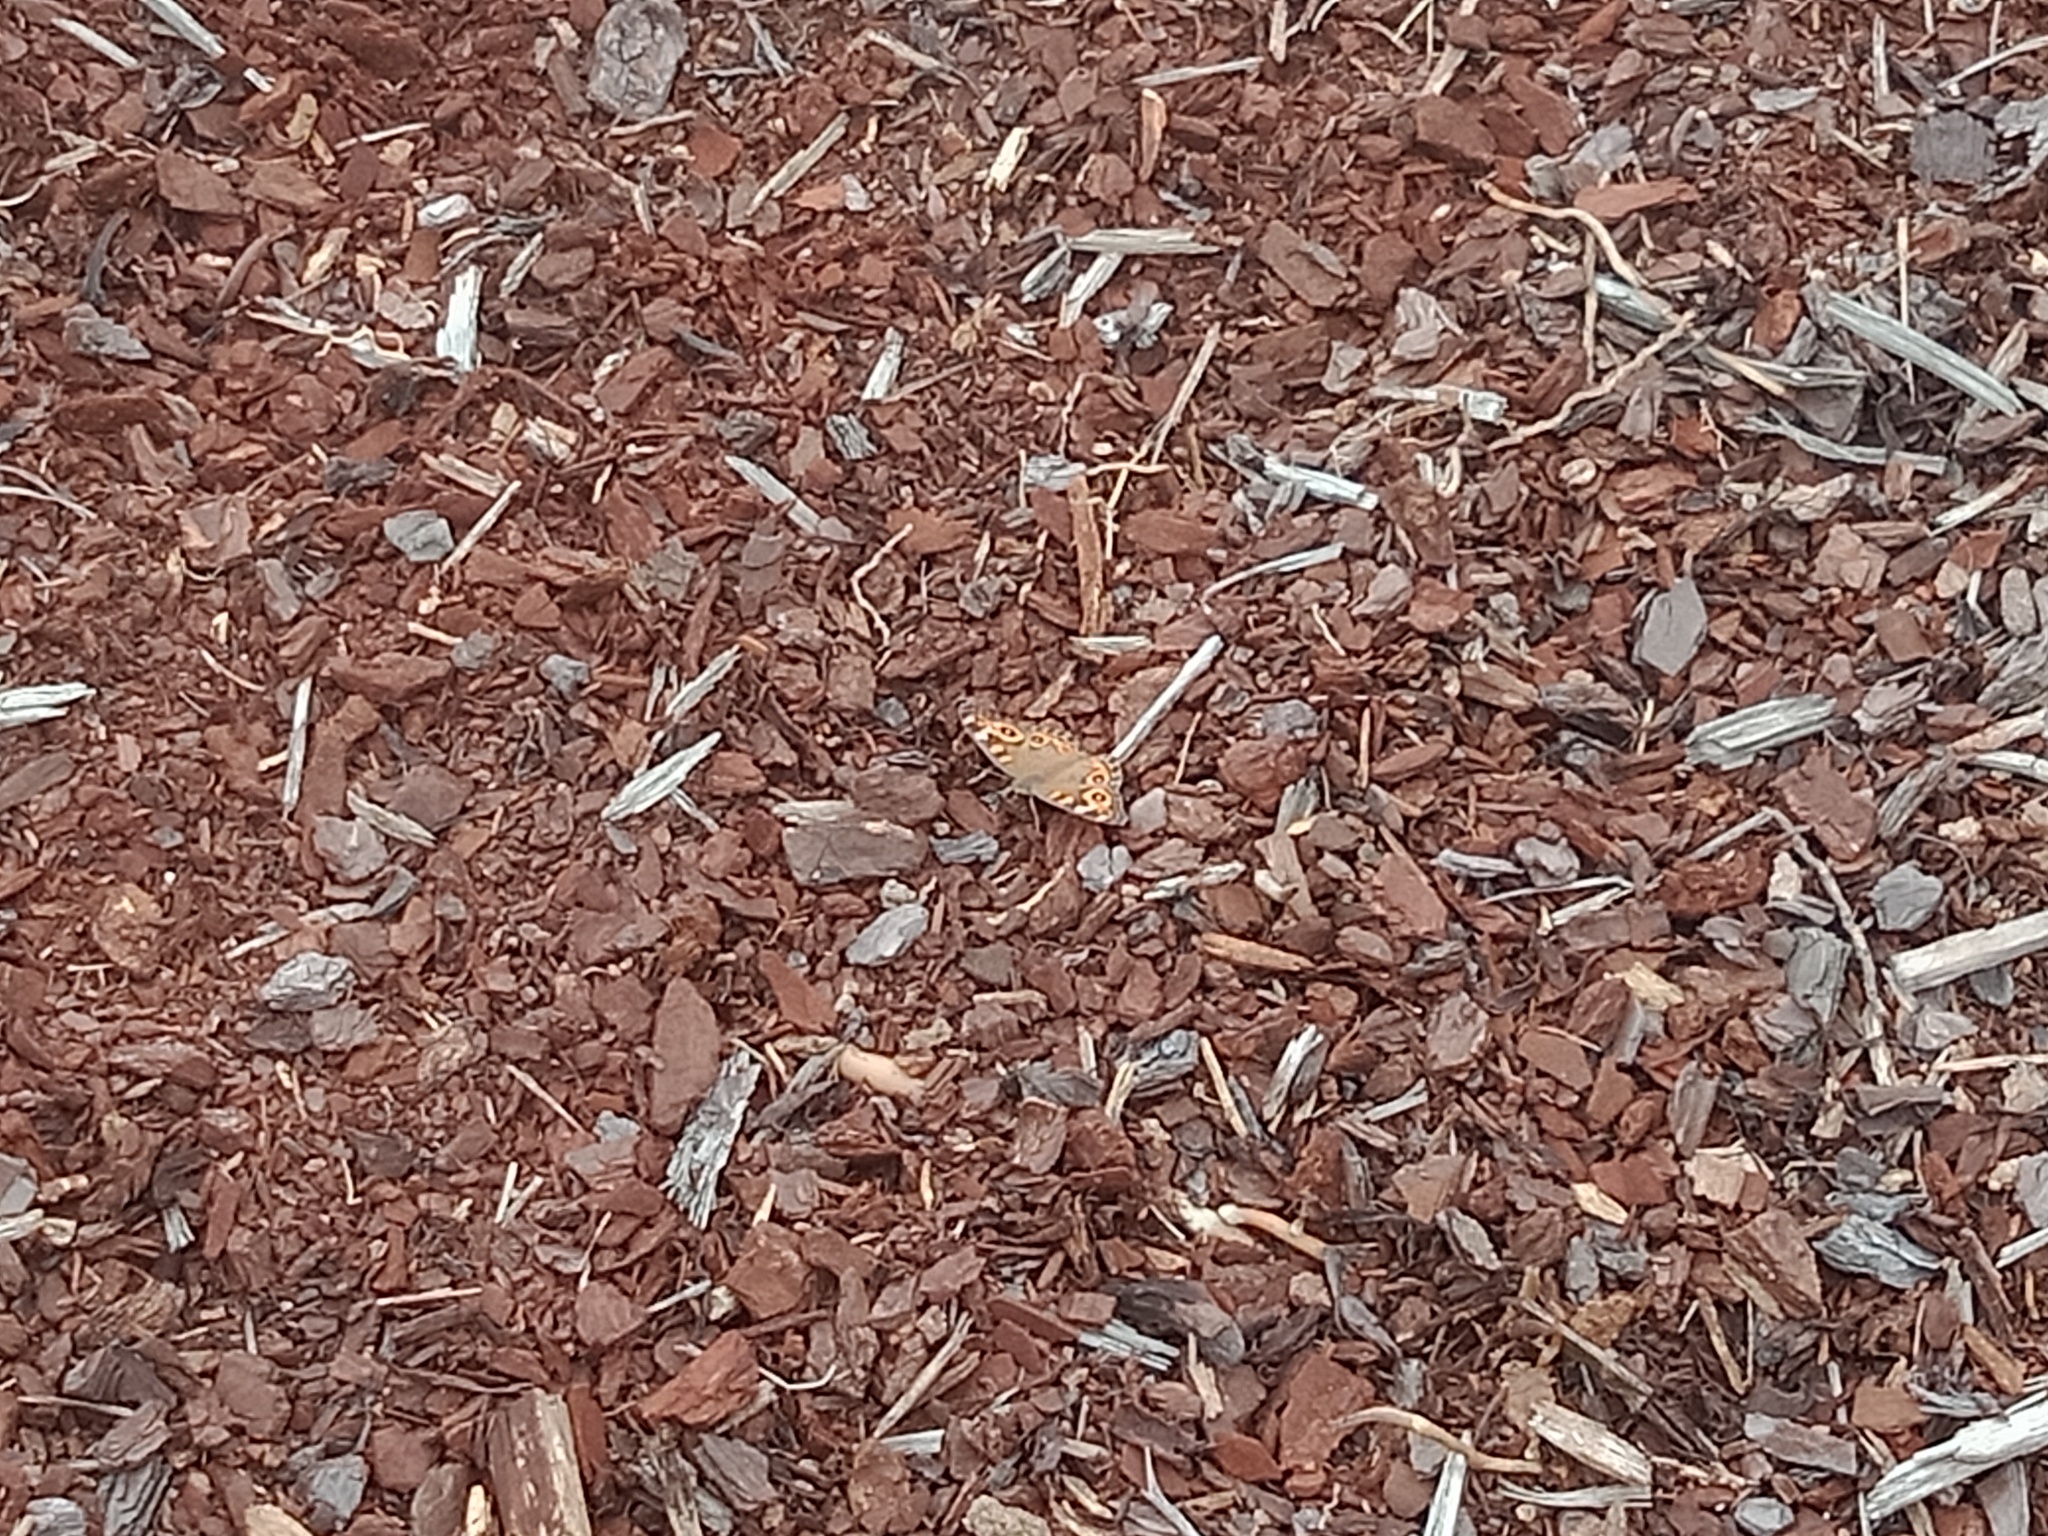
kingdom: Animalia
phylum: Arthropoda
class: Insecta
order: Lepidoptera
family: Nymphalidae
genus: Junonia
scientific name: Junonia villida
